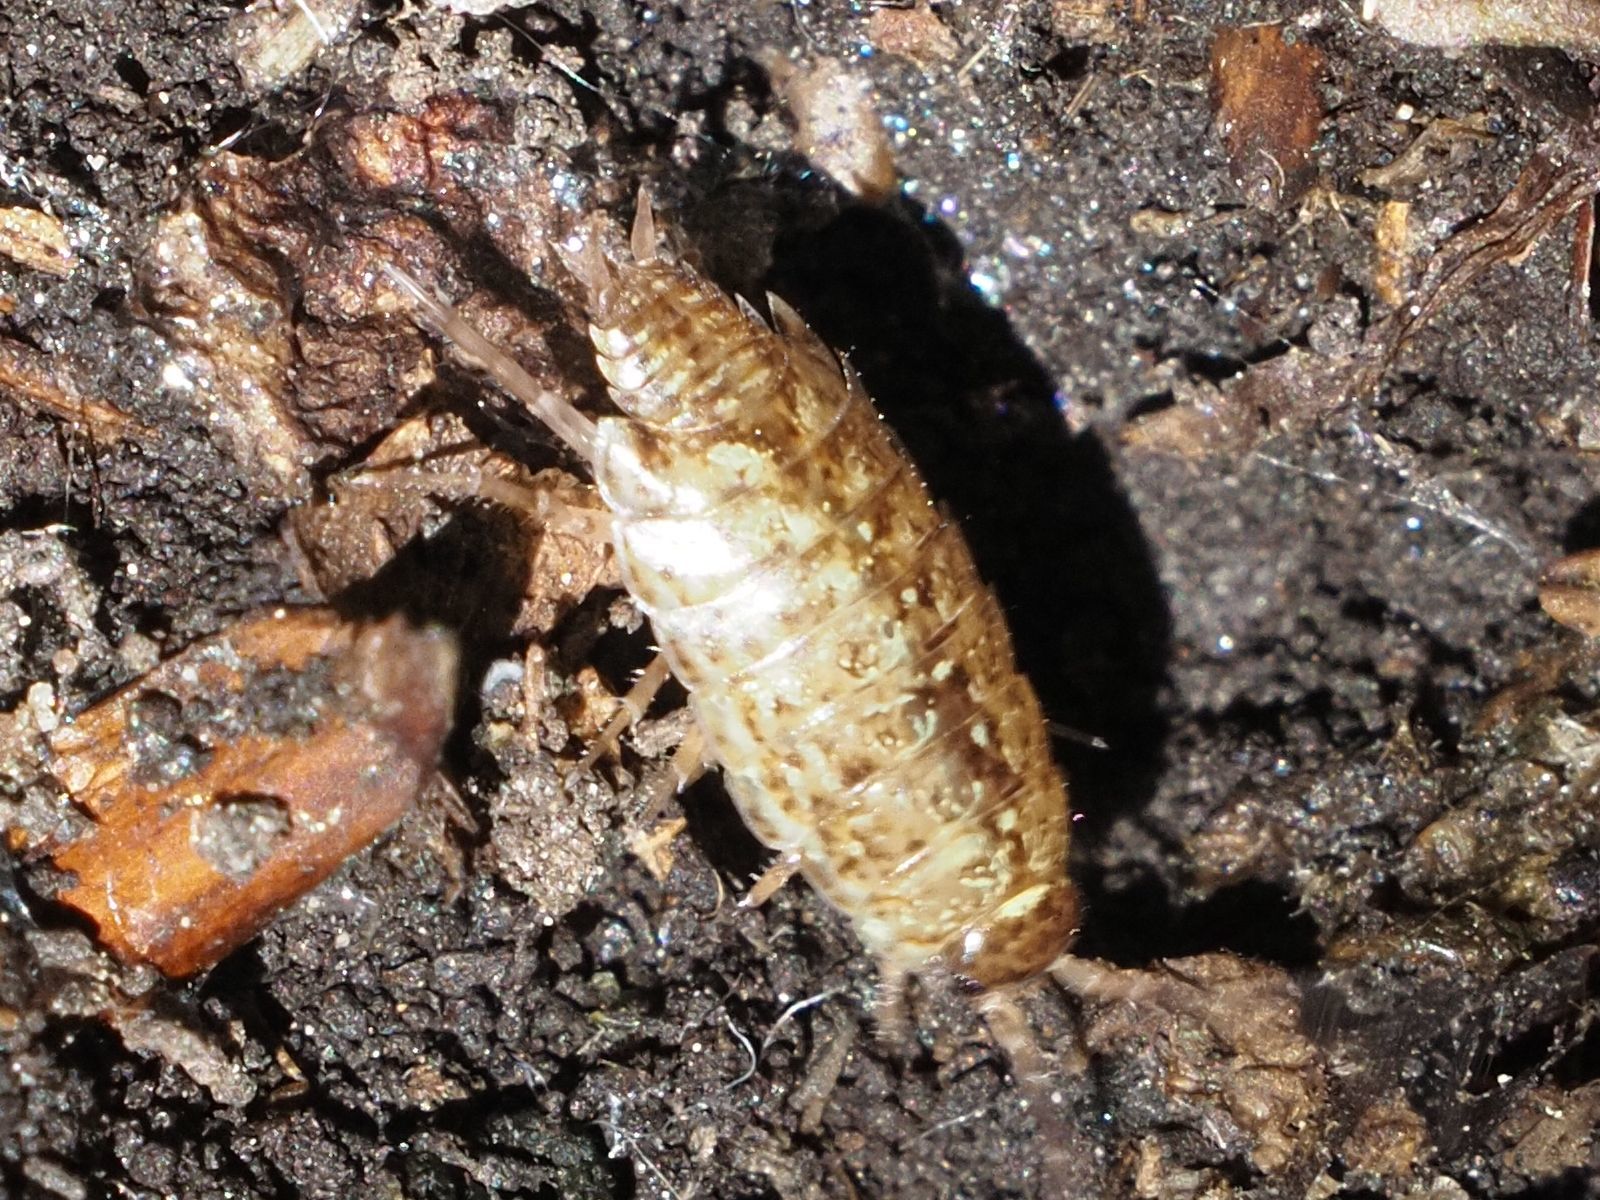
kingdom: Animalia
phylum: Arthropoda
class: Malacostraca
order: Isopoda
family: Philosciidae
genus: Philoscia
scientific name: Philoscia muscorum
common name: Common striped woodlouse
